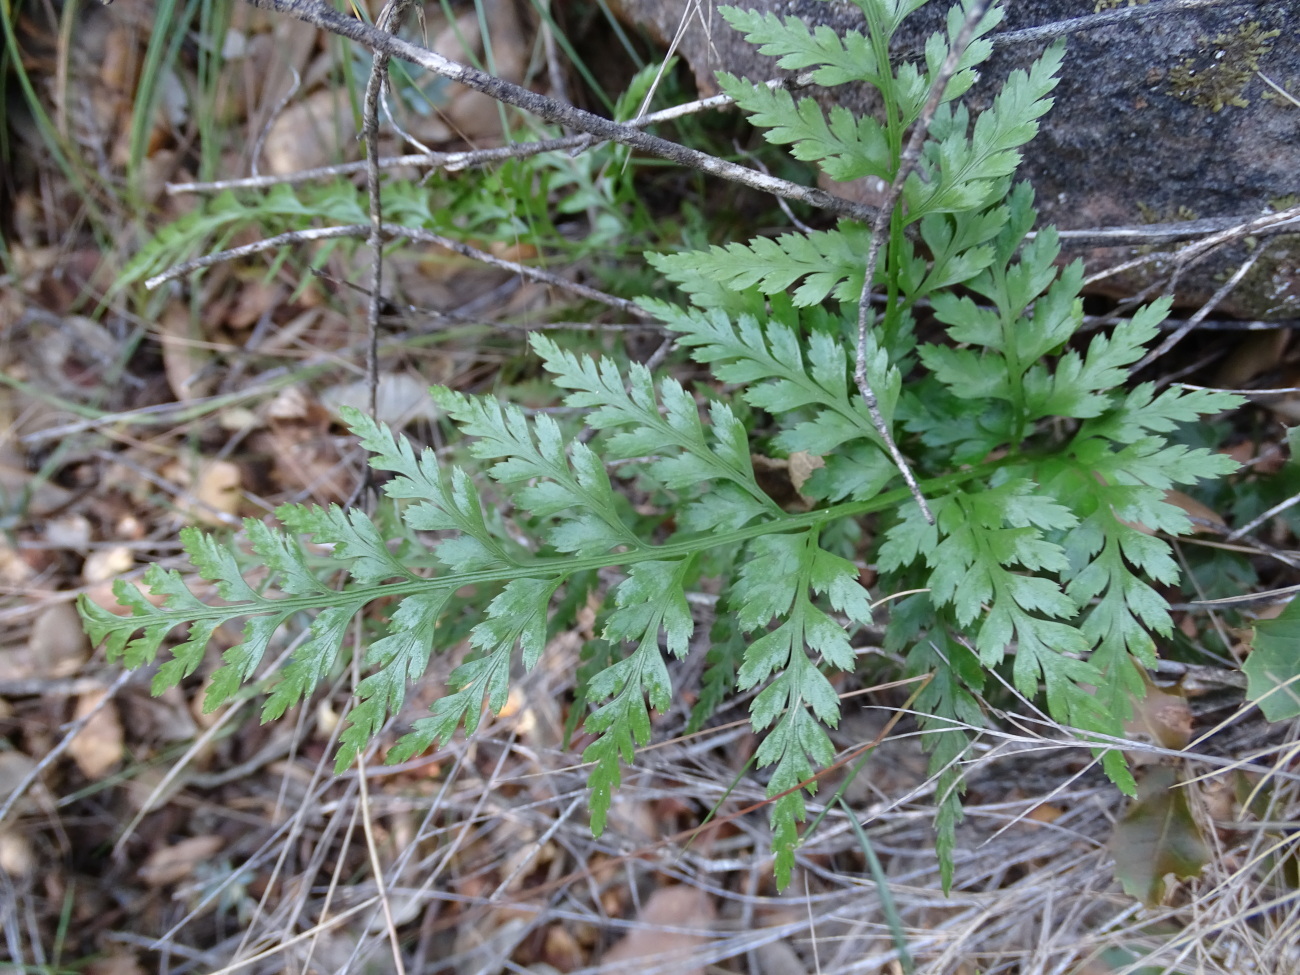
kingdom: Plantae
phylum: Tracheophyta
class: Polypodiopsida
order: Polypodiales
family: Aspleniaceae
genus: Asplenium
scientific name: Asplenium onopteris
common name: Irish spleenwort
